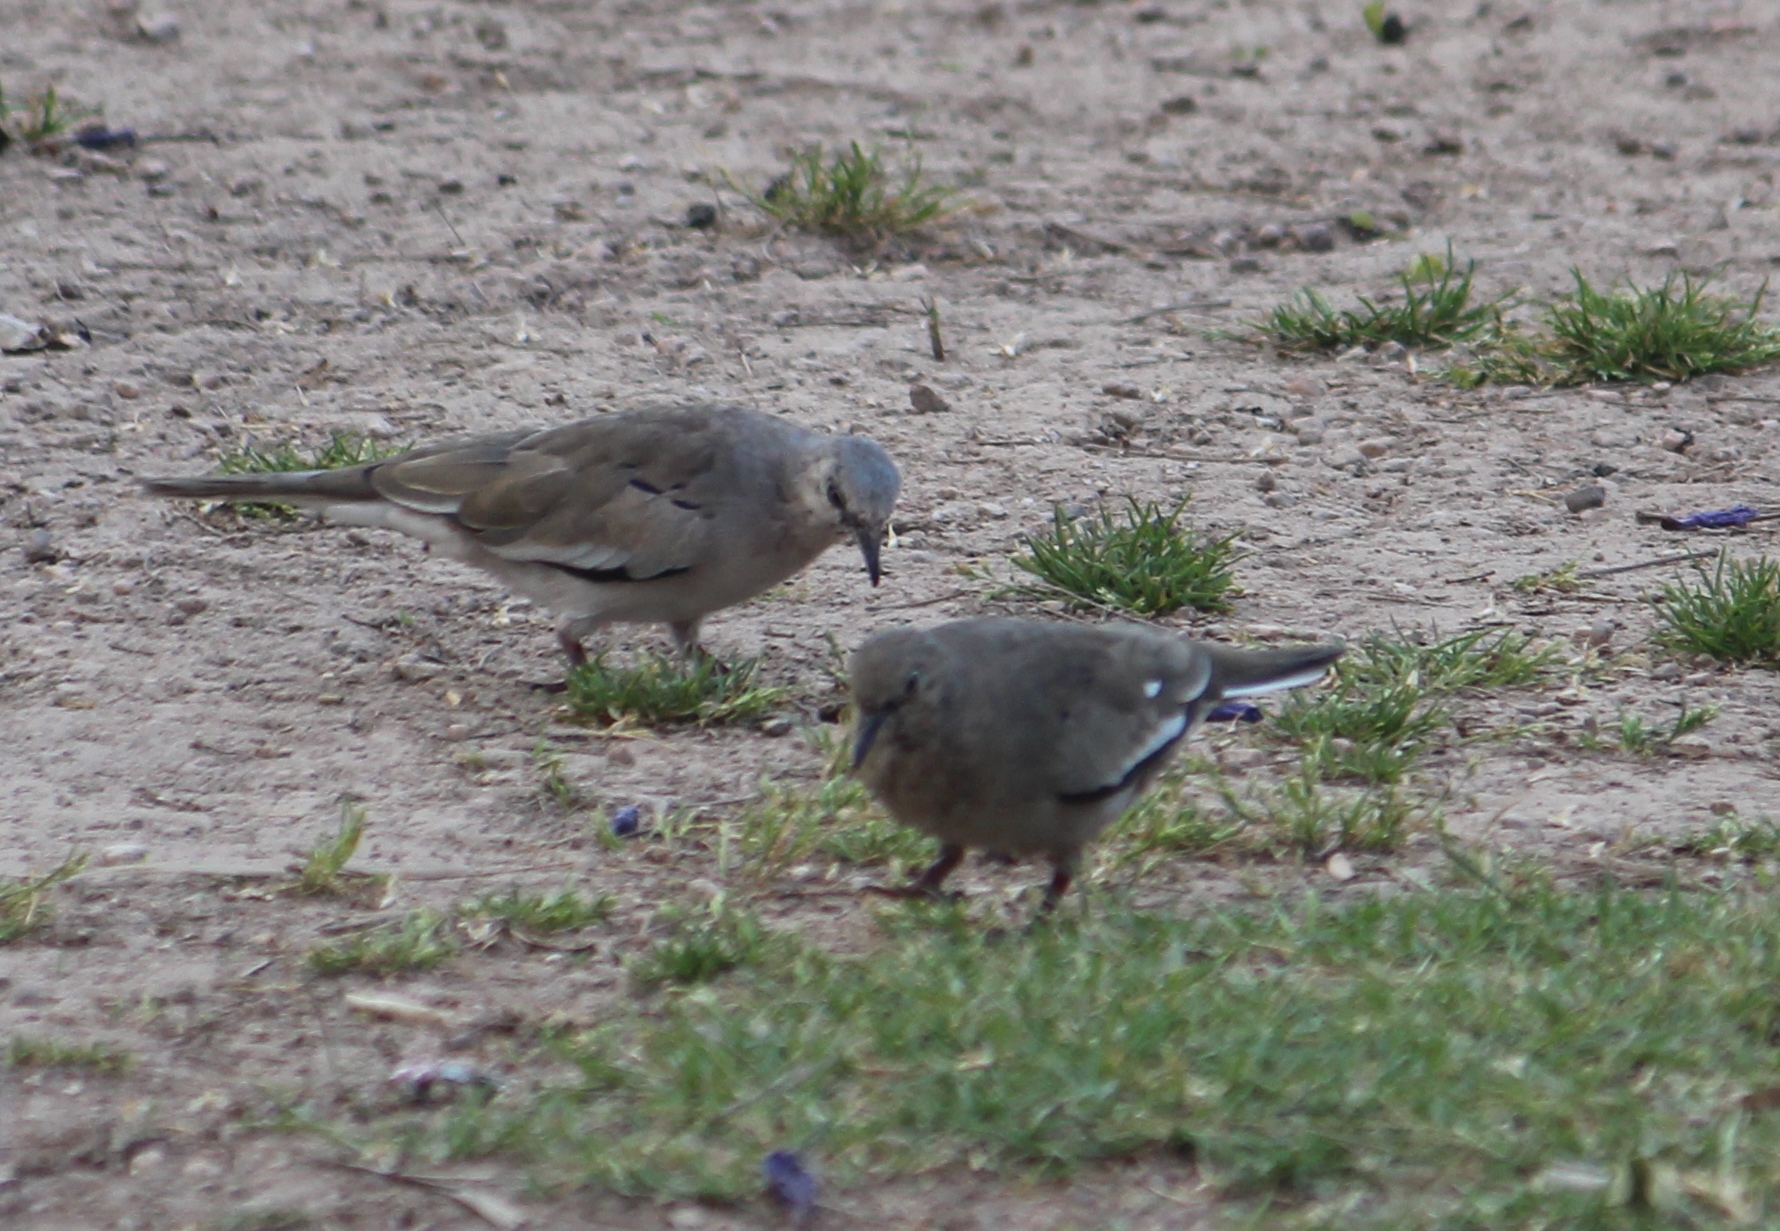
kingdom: Animalia
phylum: Chordata
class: Aves
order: Columbiformes
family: Columbidae
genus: Columbina
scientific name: Columbina picui
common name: Picui ground dove
